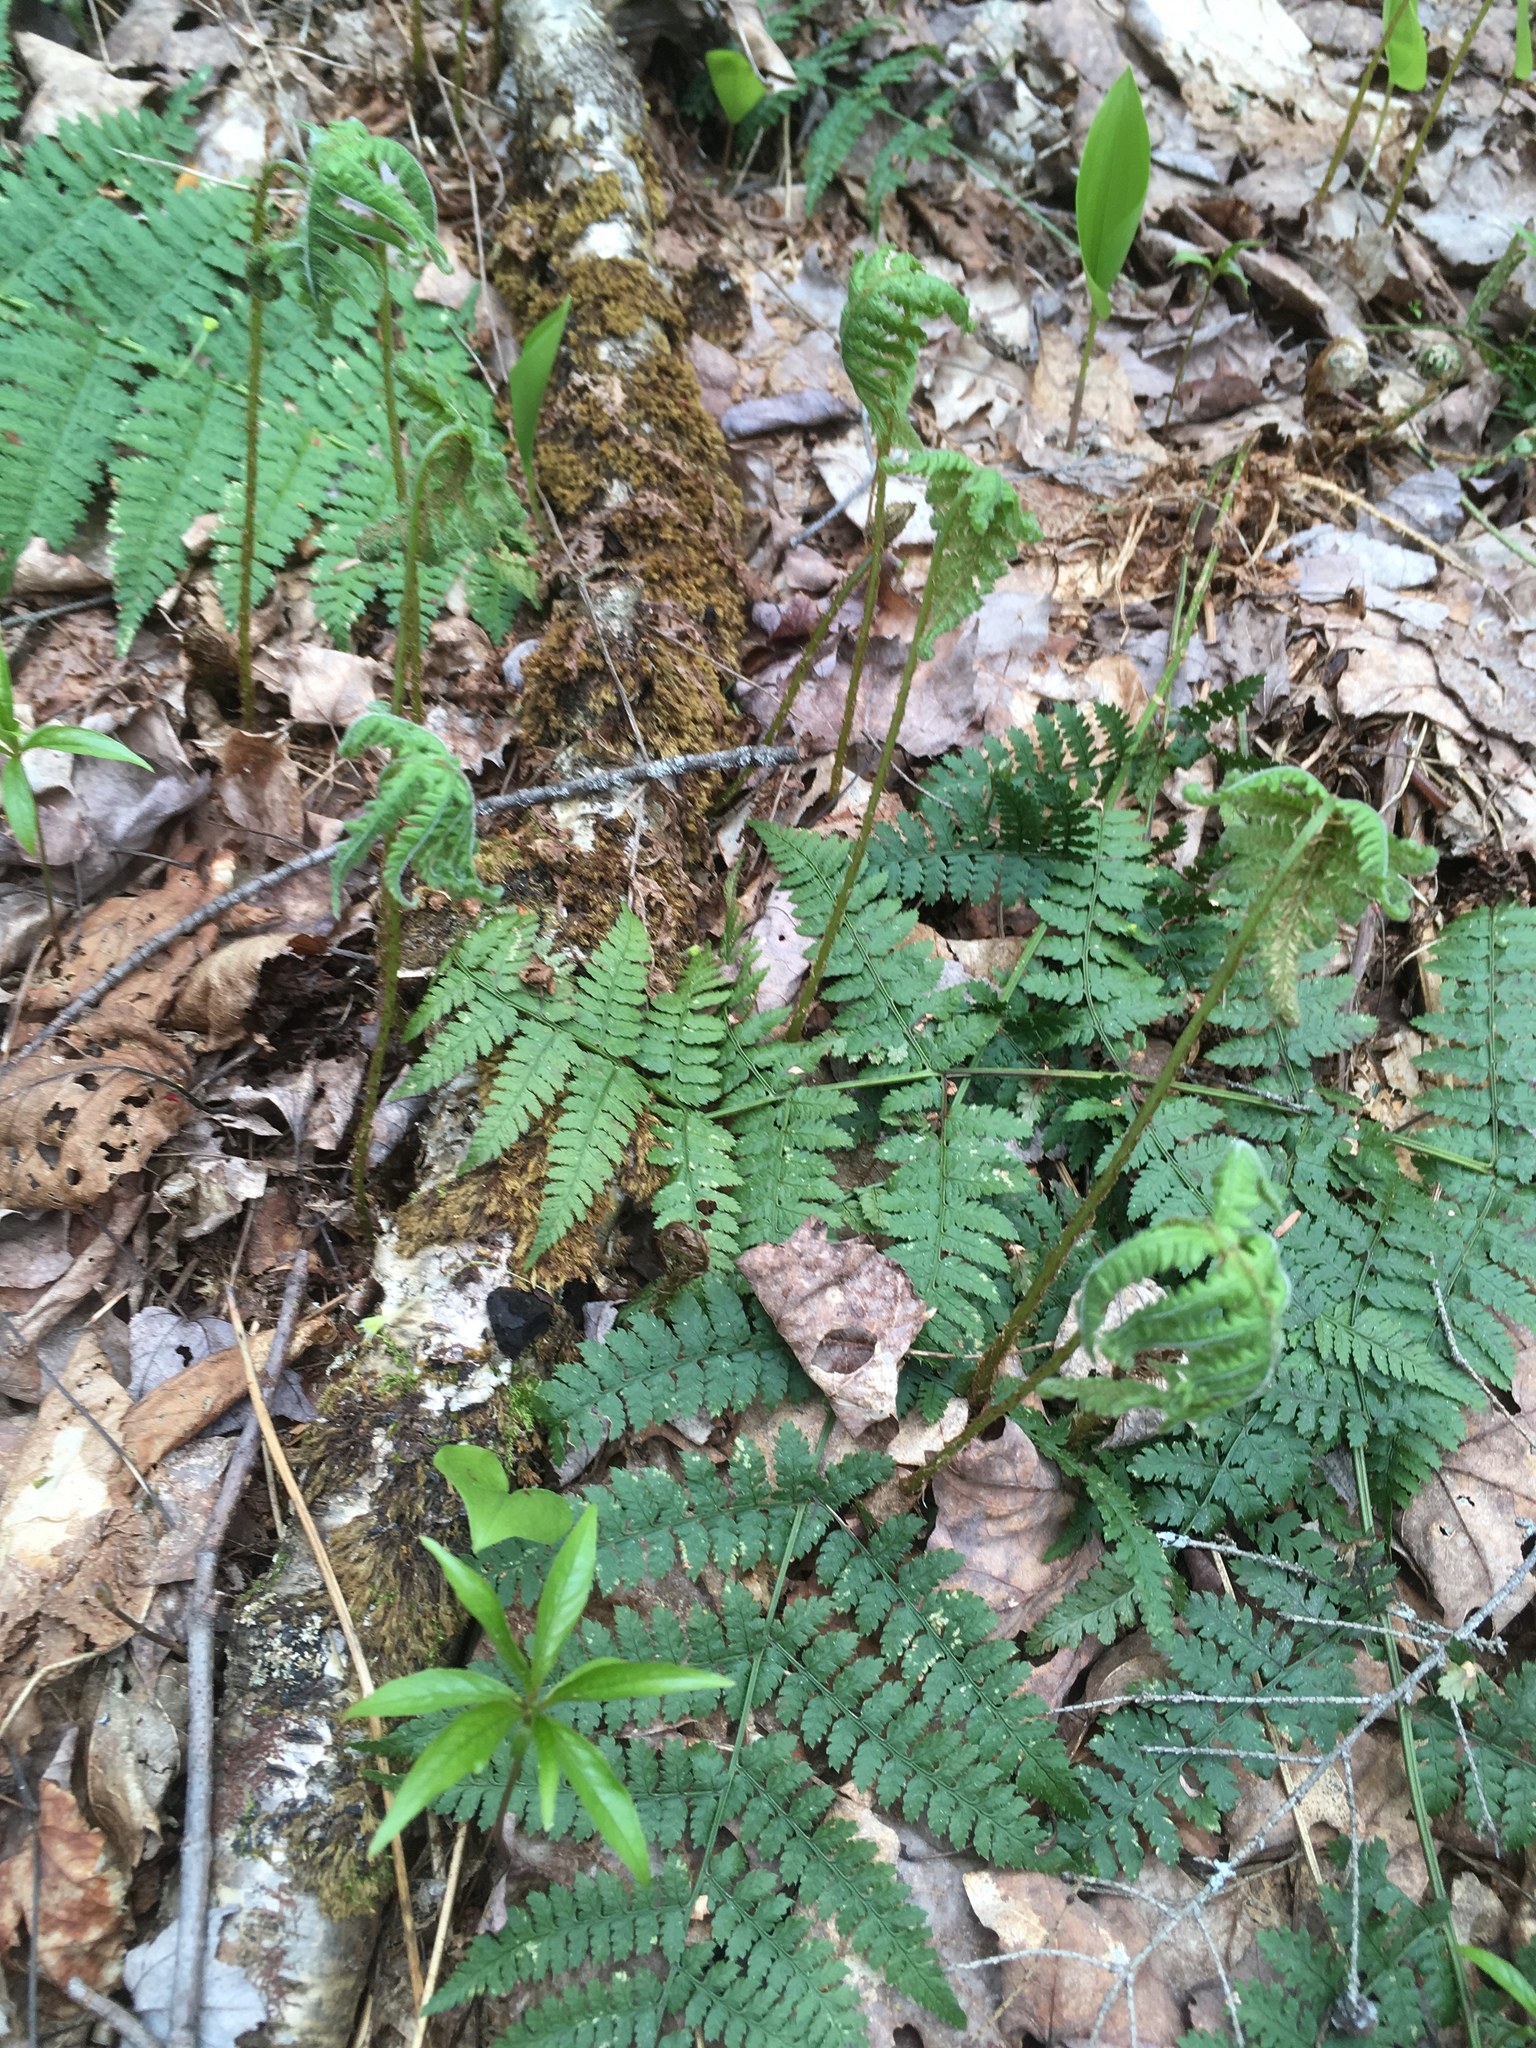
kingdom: Plantae
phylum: Tracheophyta
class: Polypodiopsida
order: Polypodiales
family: Thelypteridaceae
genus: Phegopteris
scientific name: Phegopteris connectilis
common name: Beech fern
